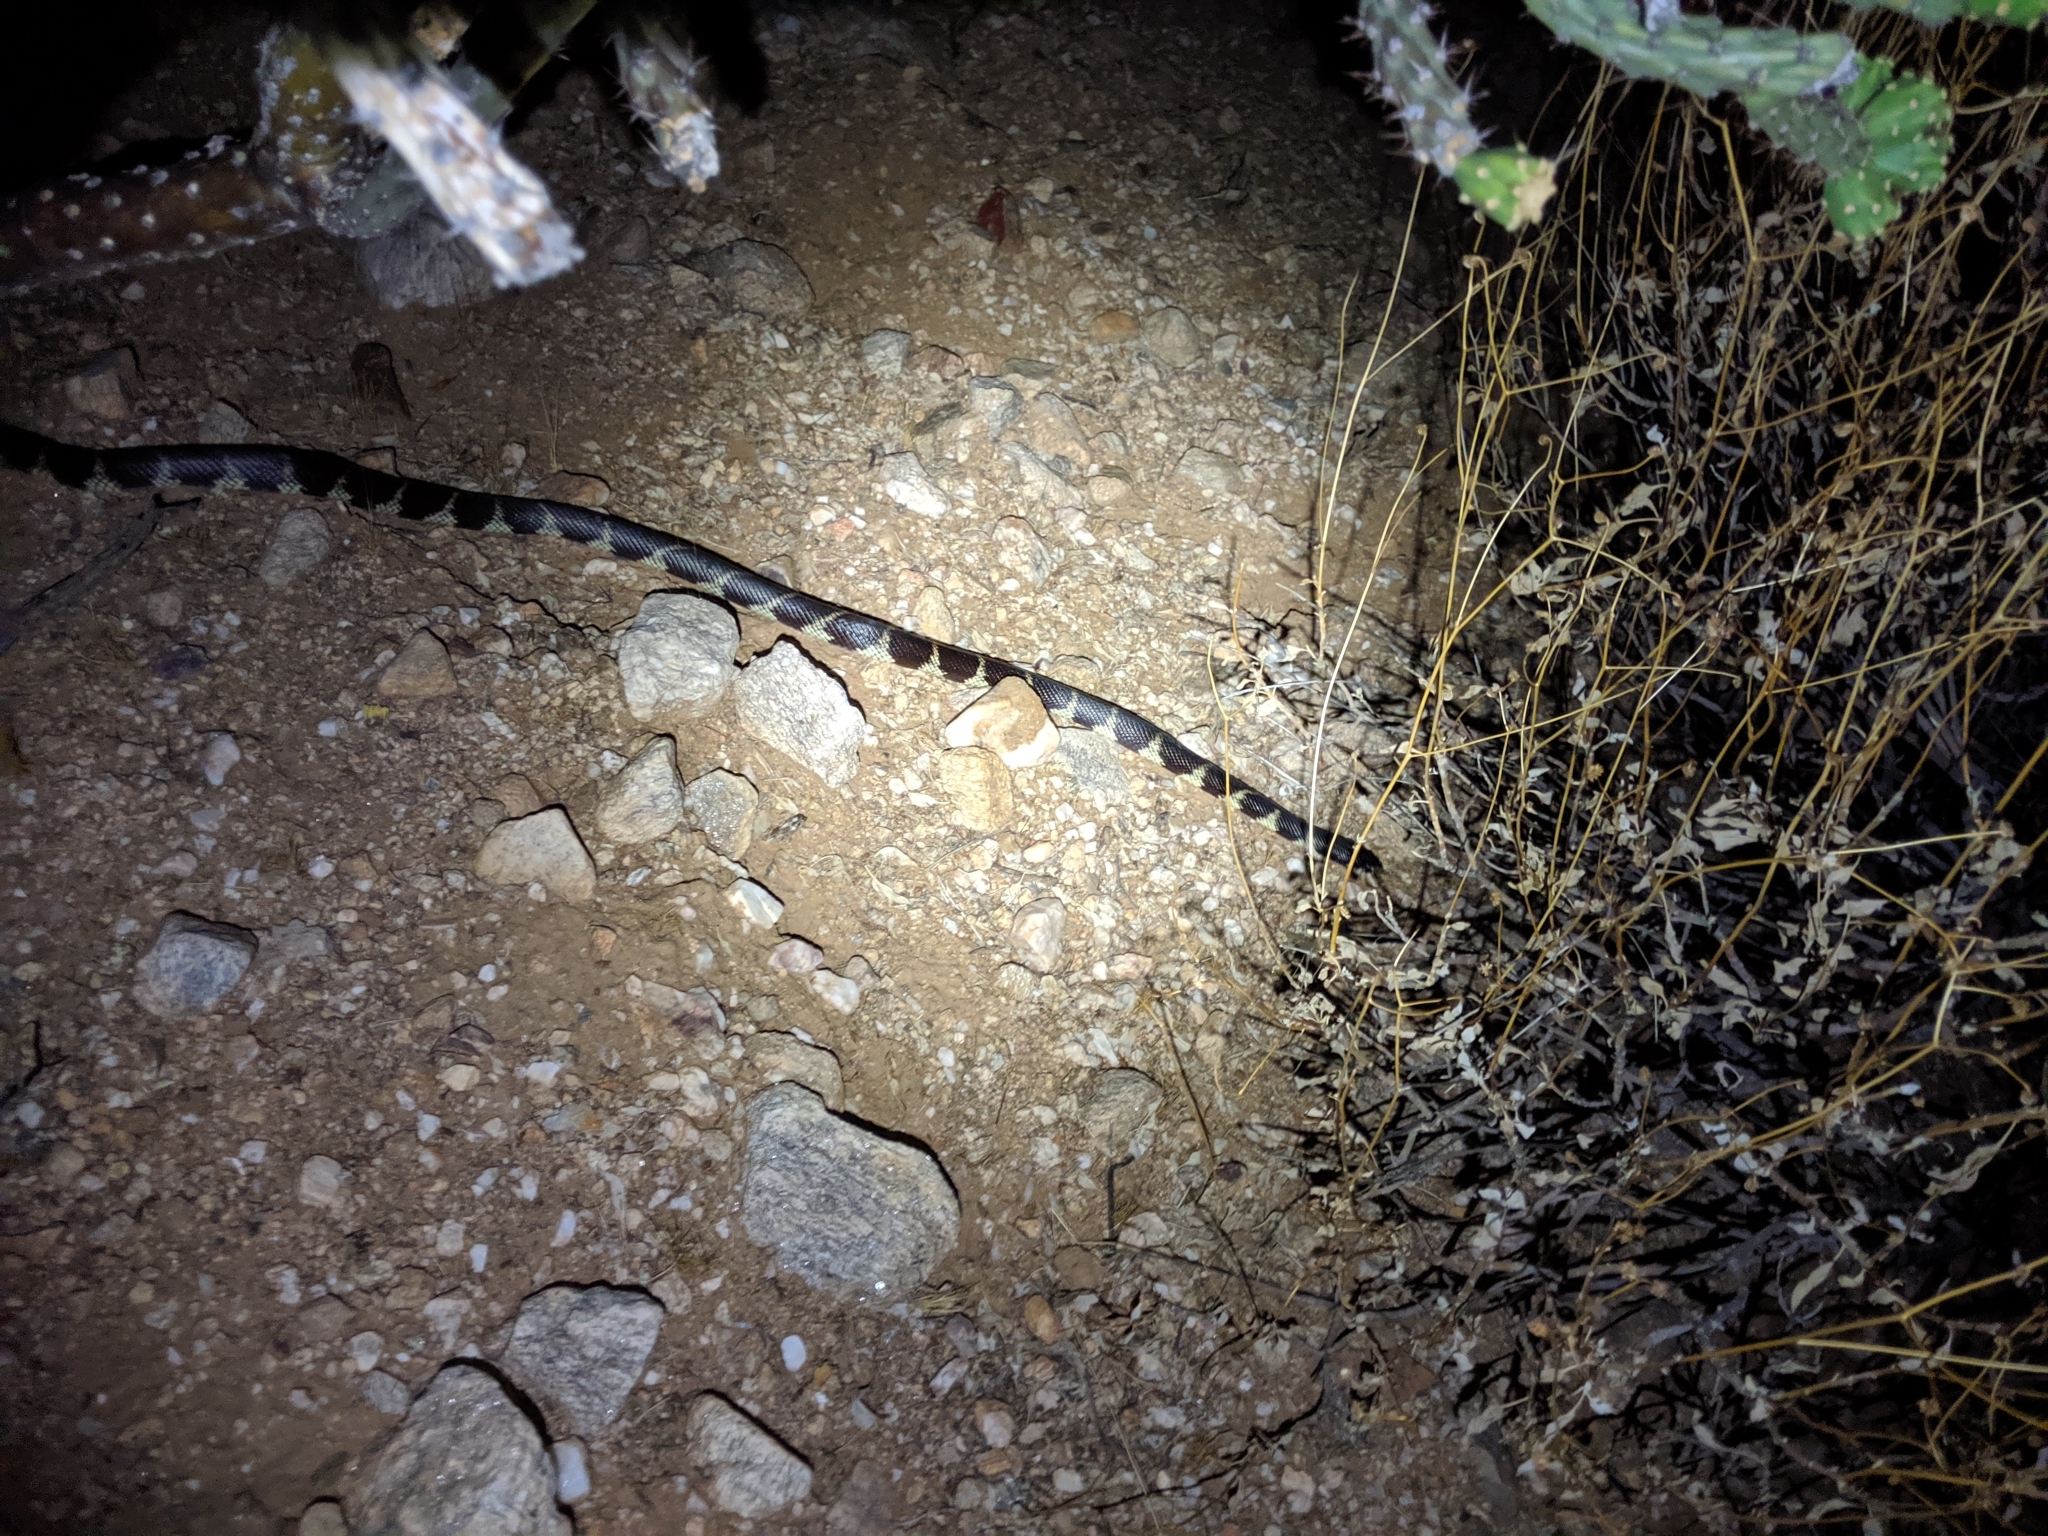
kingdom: Animalia
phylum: Chordata
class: Squamata
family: Colubridae
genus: Lampropeltis
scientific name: Lampropeltis californiae
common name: California kingsnake
